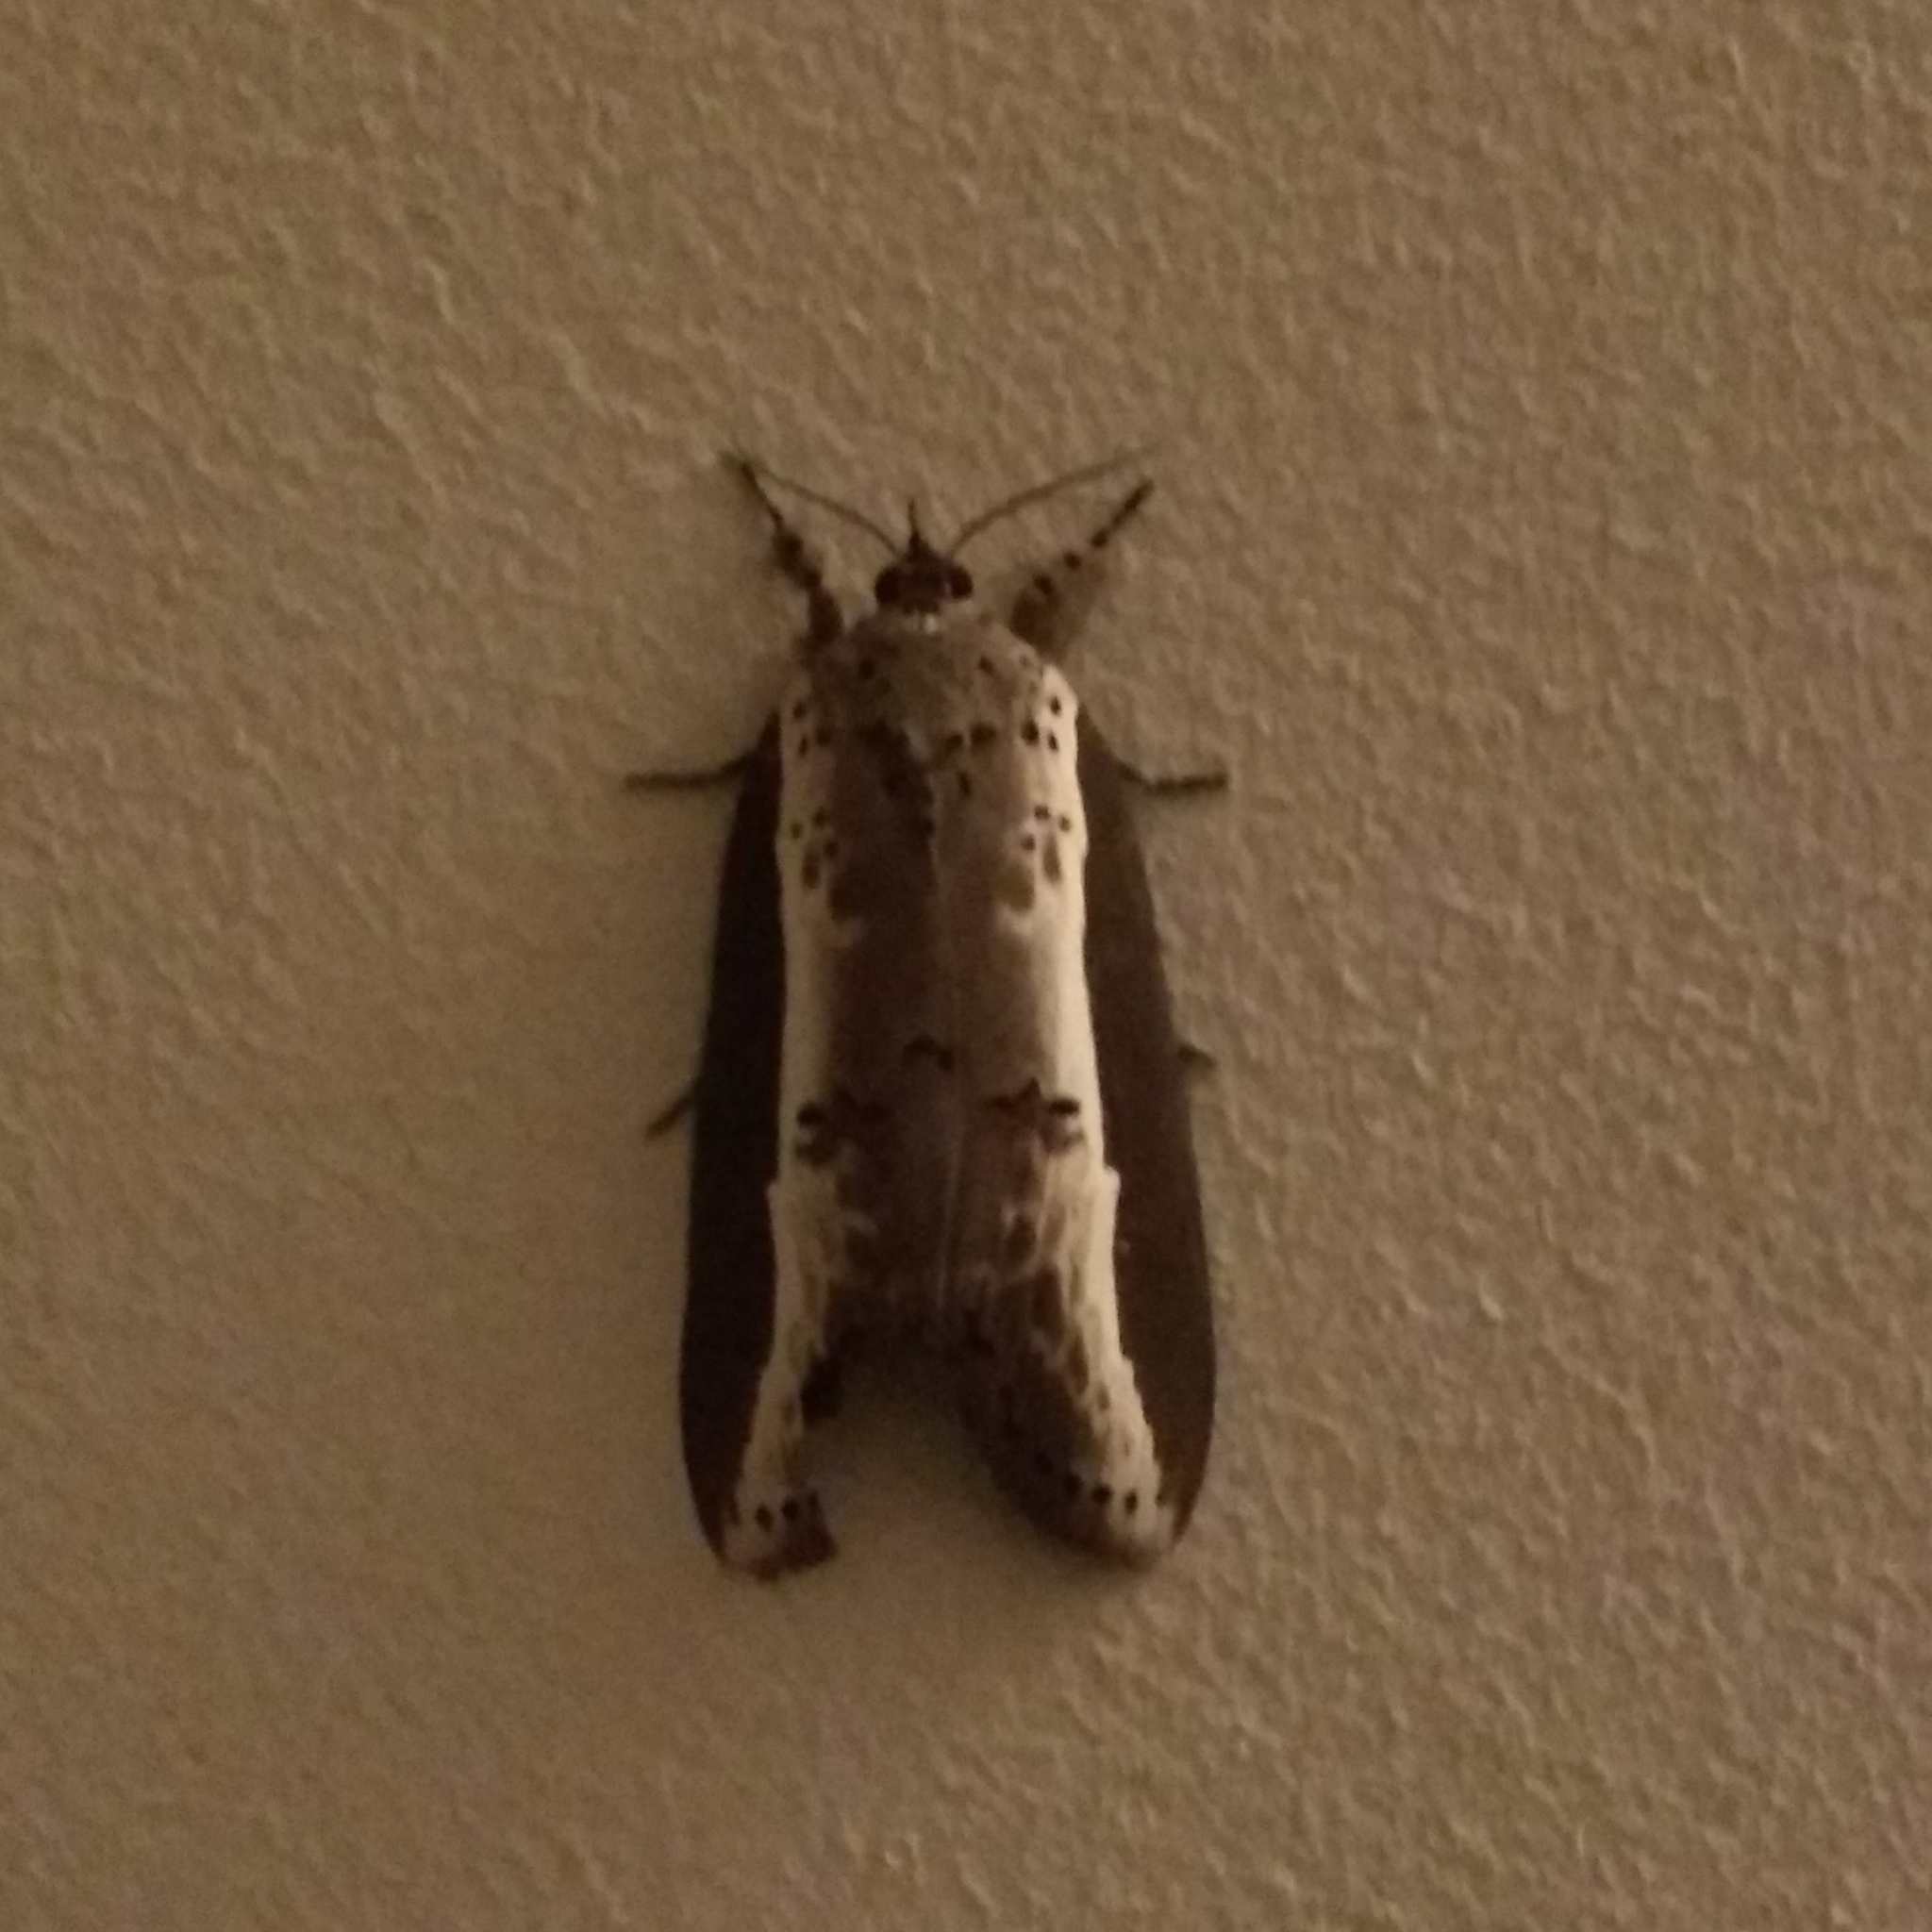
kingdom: Animalia
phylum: Arthropoda
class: Insecta
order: Lepidoptera
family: Nolidae
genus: Eligma
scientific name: Eligma narcissus
